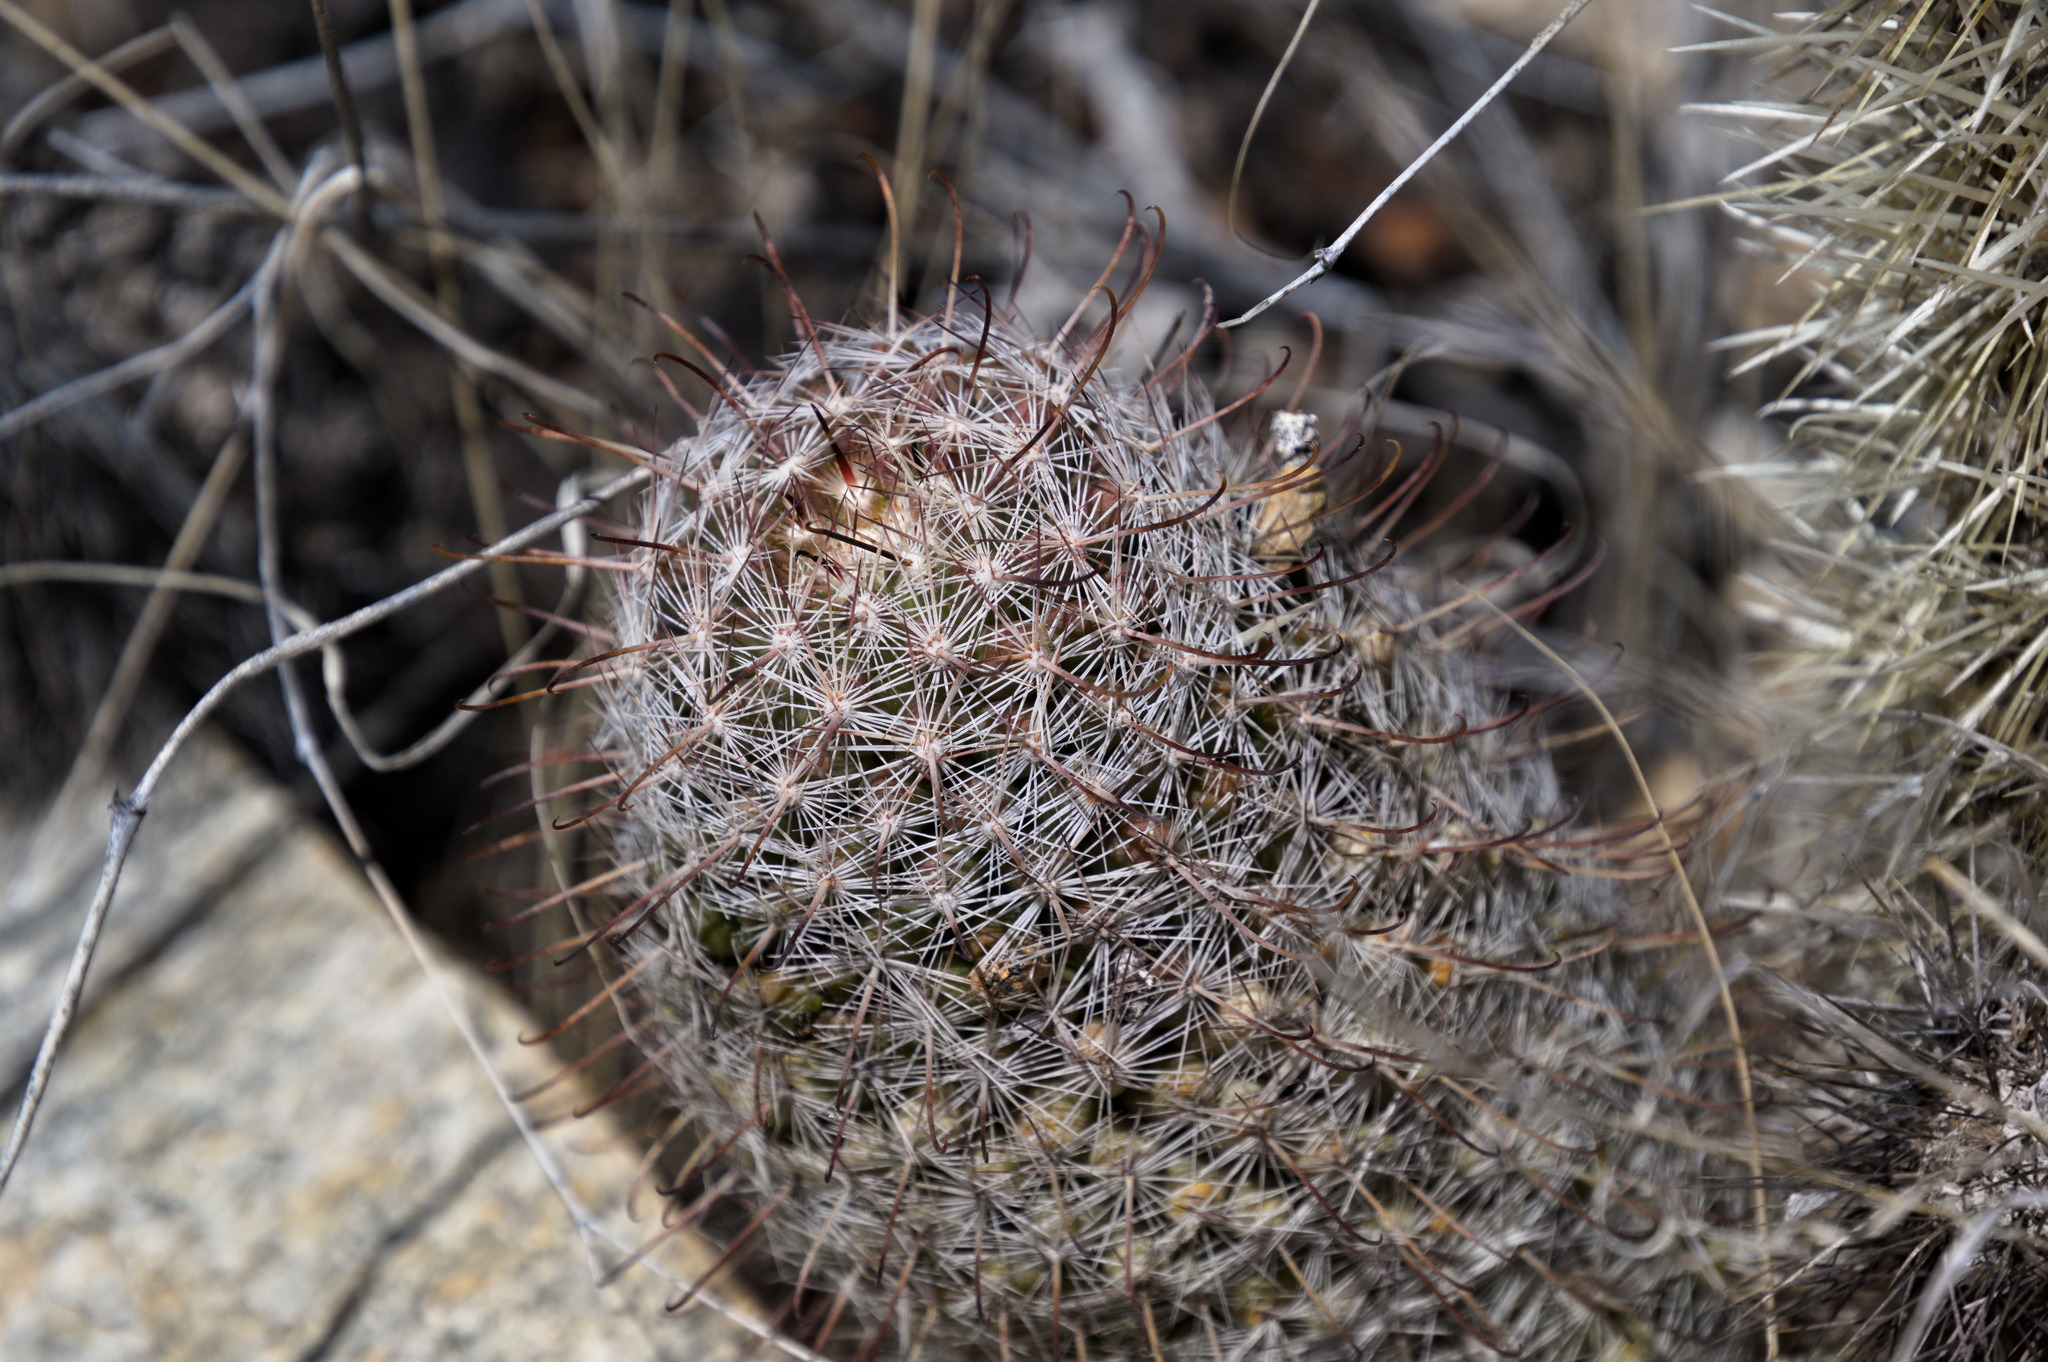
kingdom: Plantae
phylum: Tracheophyta
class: Magnoliopsida
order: Caryophyllales
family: Cactaceae
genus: Cochemiea
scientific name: Cochemiea grahamii
